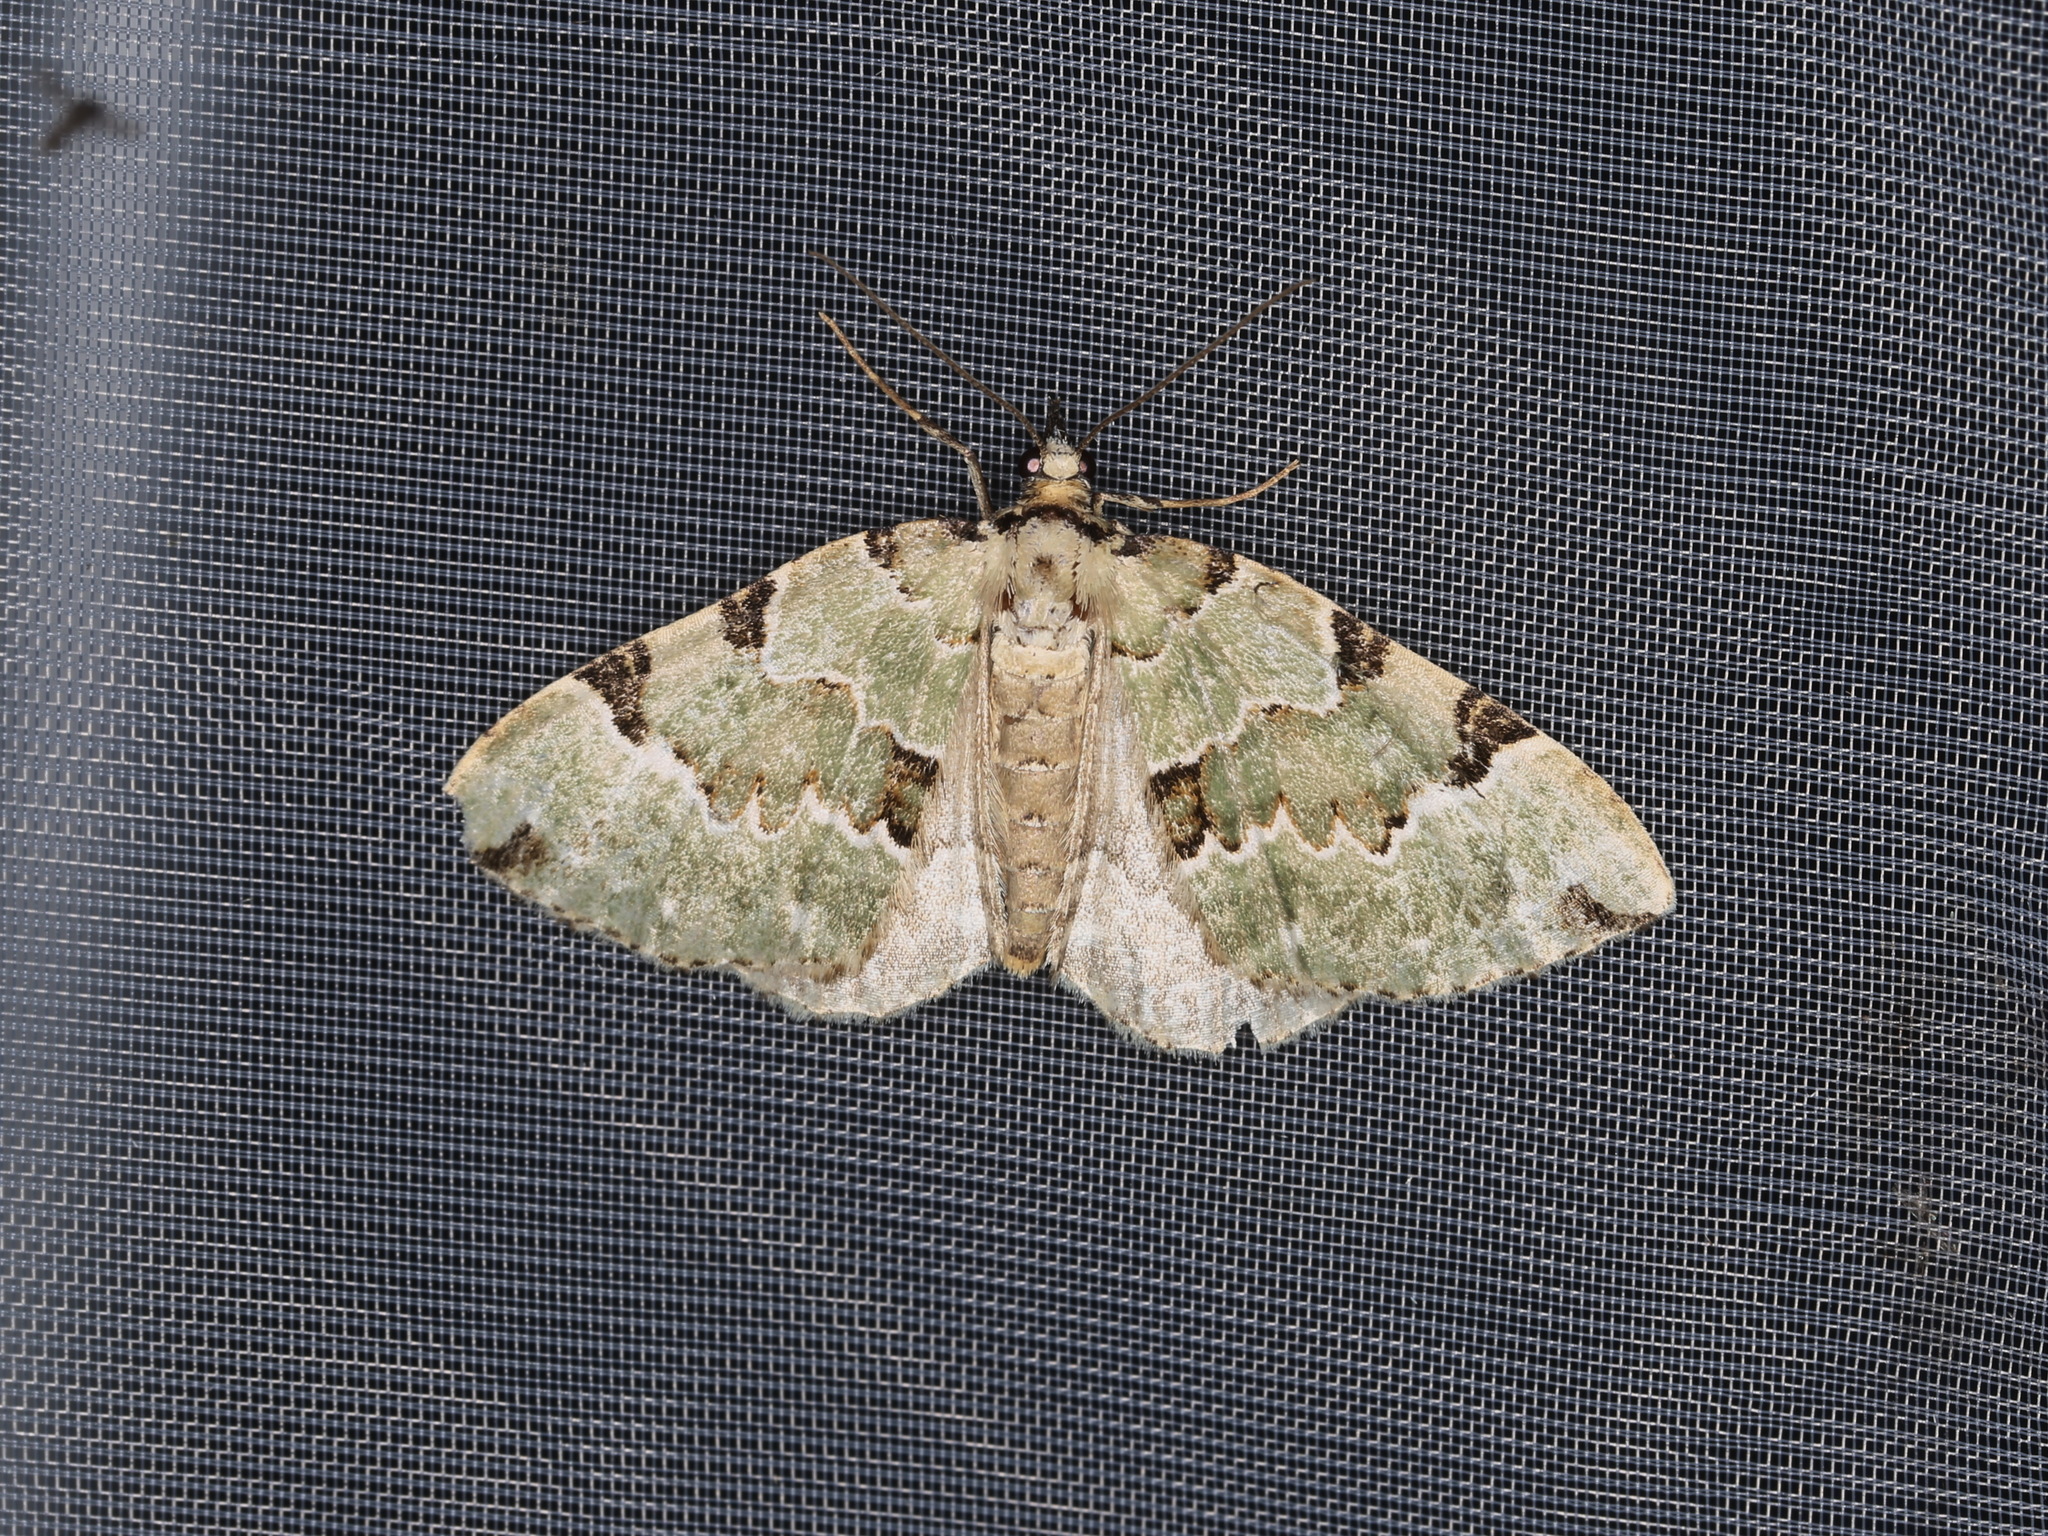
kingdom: Animalia
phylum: Arthropoda
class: Insecta
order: Lepidoptera
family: Geometridae
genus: Colostygia
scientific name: Colostygia pectinataria
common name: Green carpet
